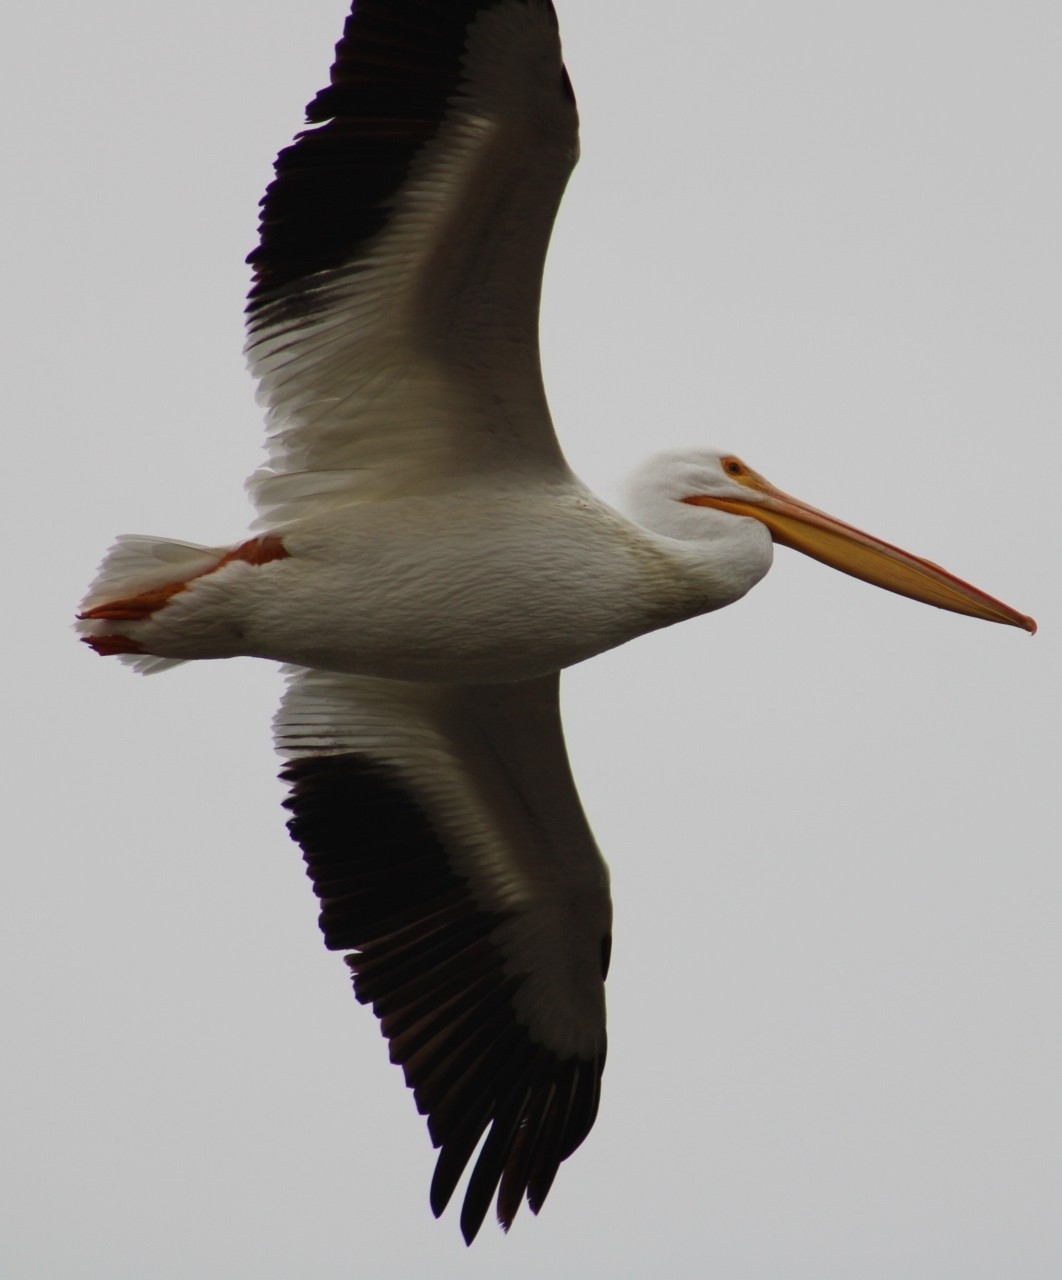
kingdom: Animalia
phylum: Chordata
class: Aves
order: Pelecaniformes
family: Pelecanidae
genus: Pelecanus
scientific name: Pelecanus erythrorhynchos
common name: American white pelican
